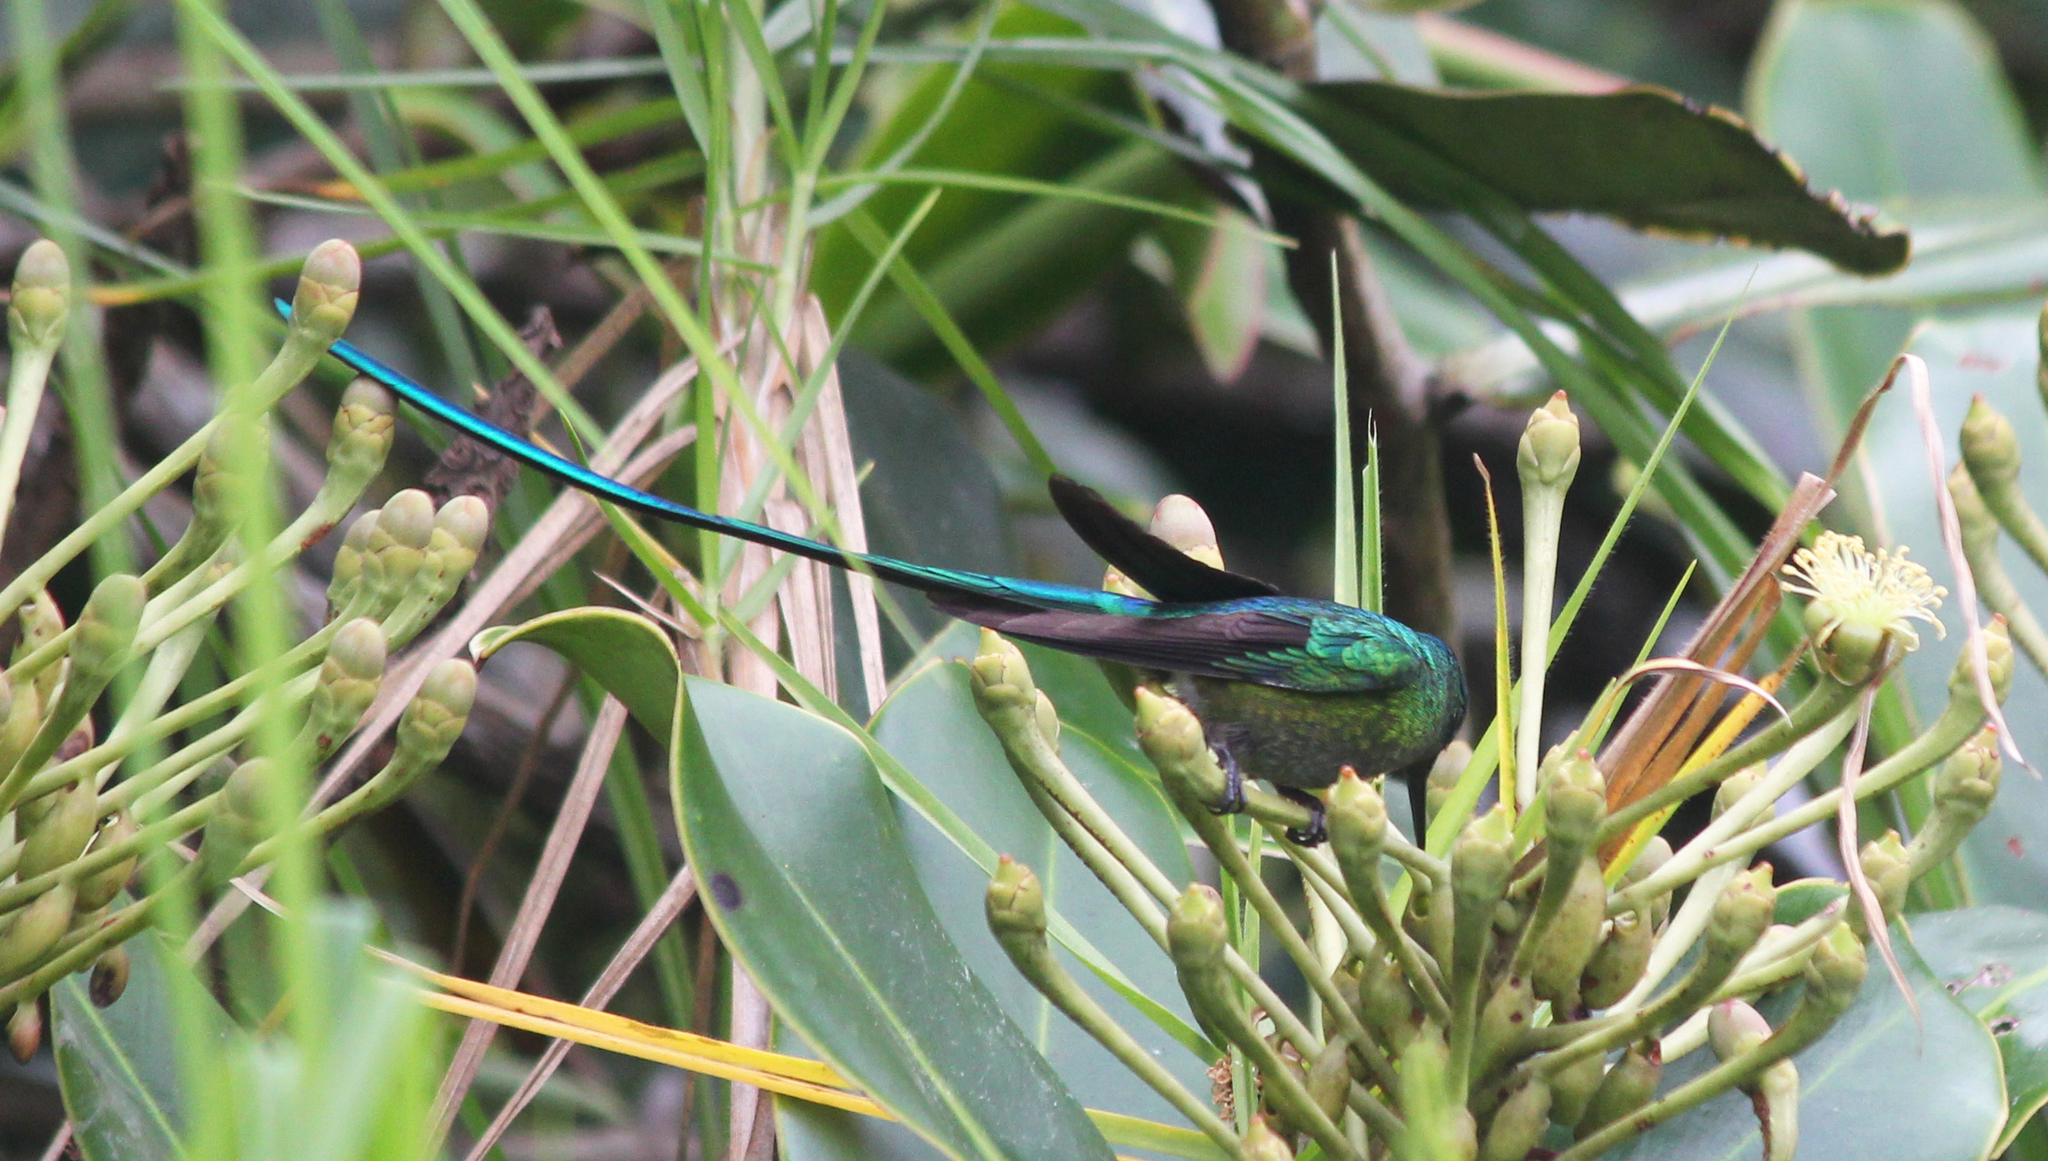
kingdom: Animalia
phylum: Chordata
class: Aves
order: Apodiformes
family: Trochilidae
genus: Aglaiocercus
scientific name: Aglaiocercus kingii
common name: Long-tailed sylph
